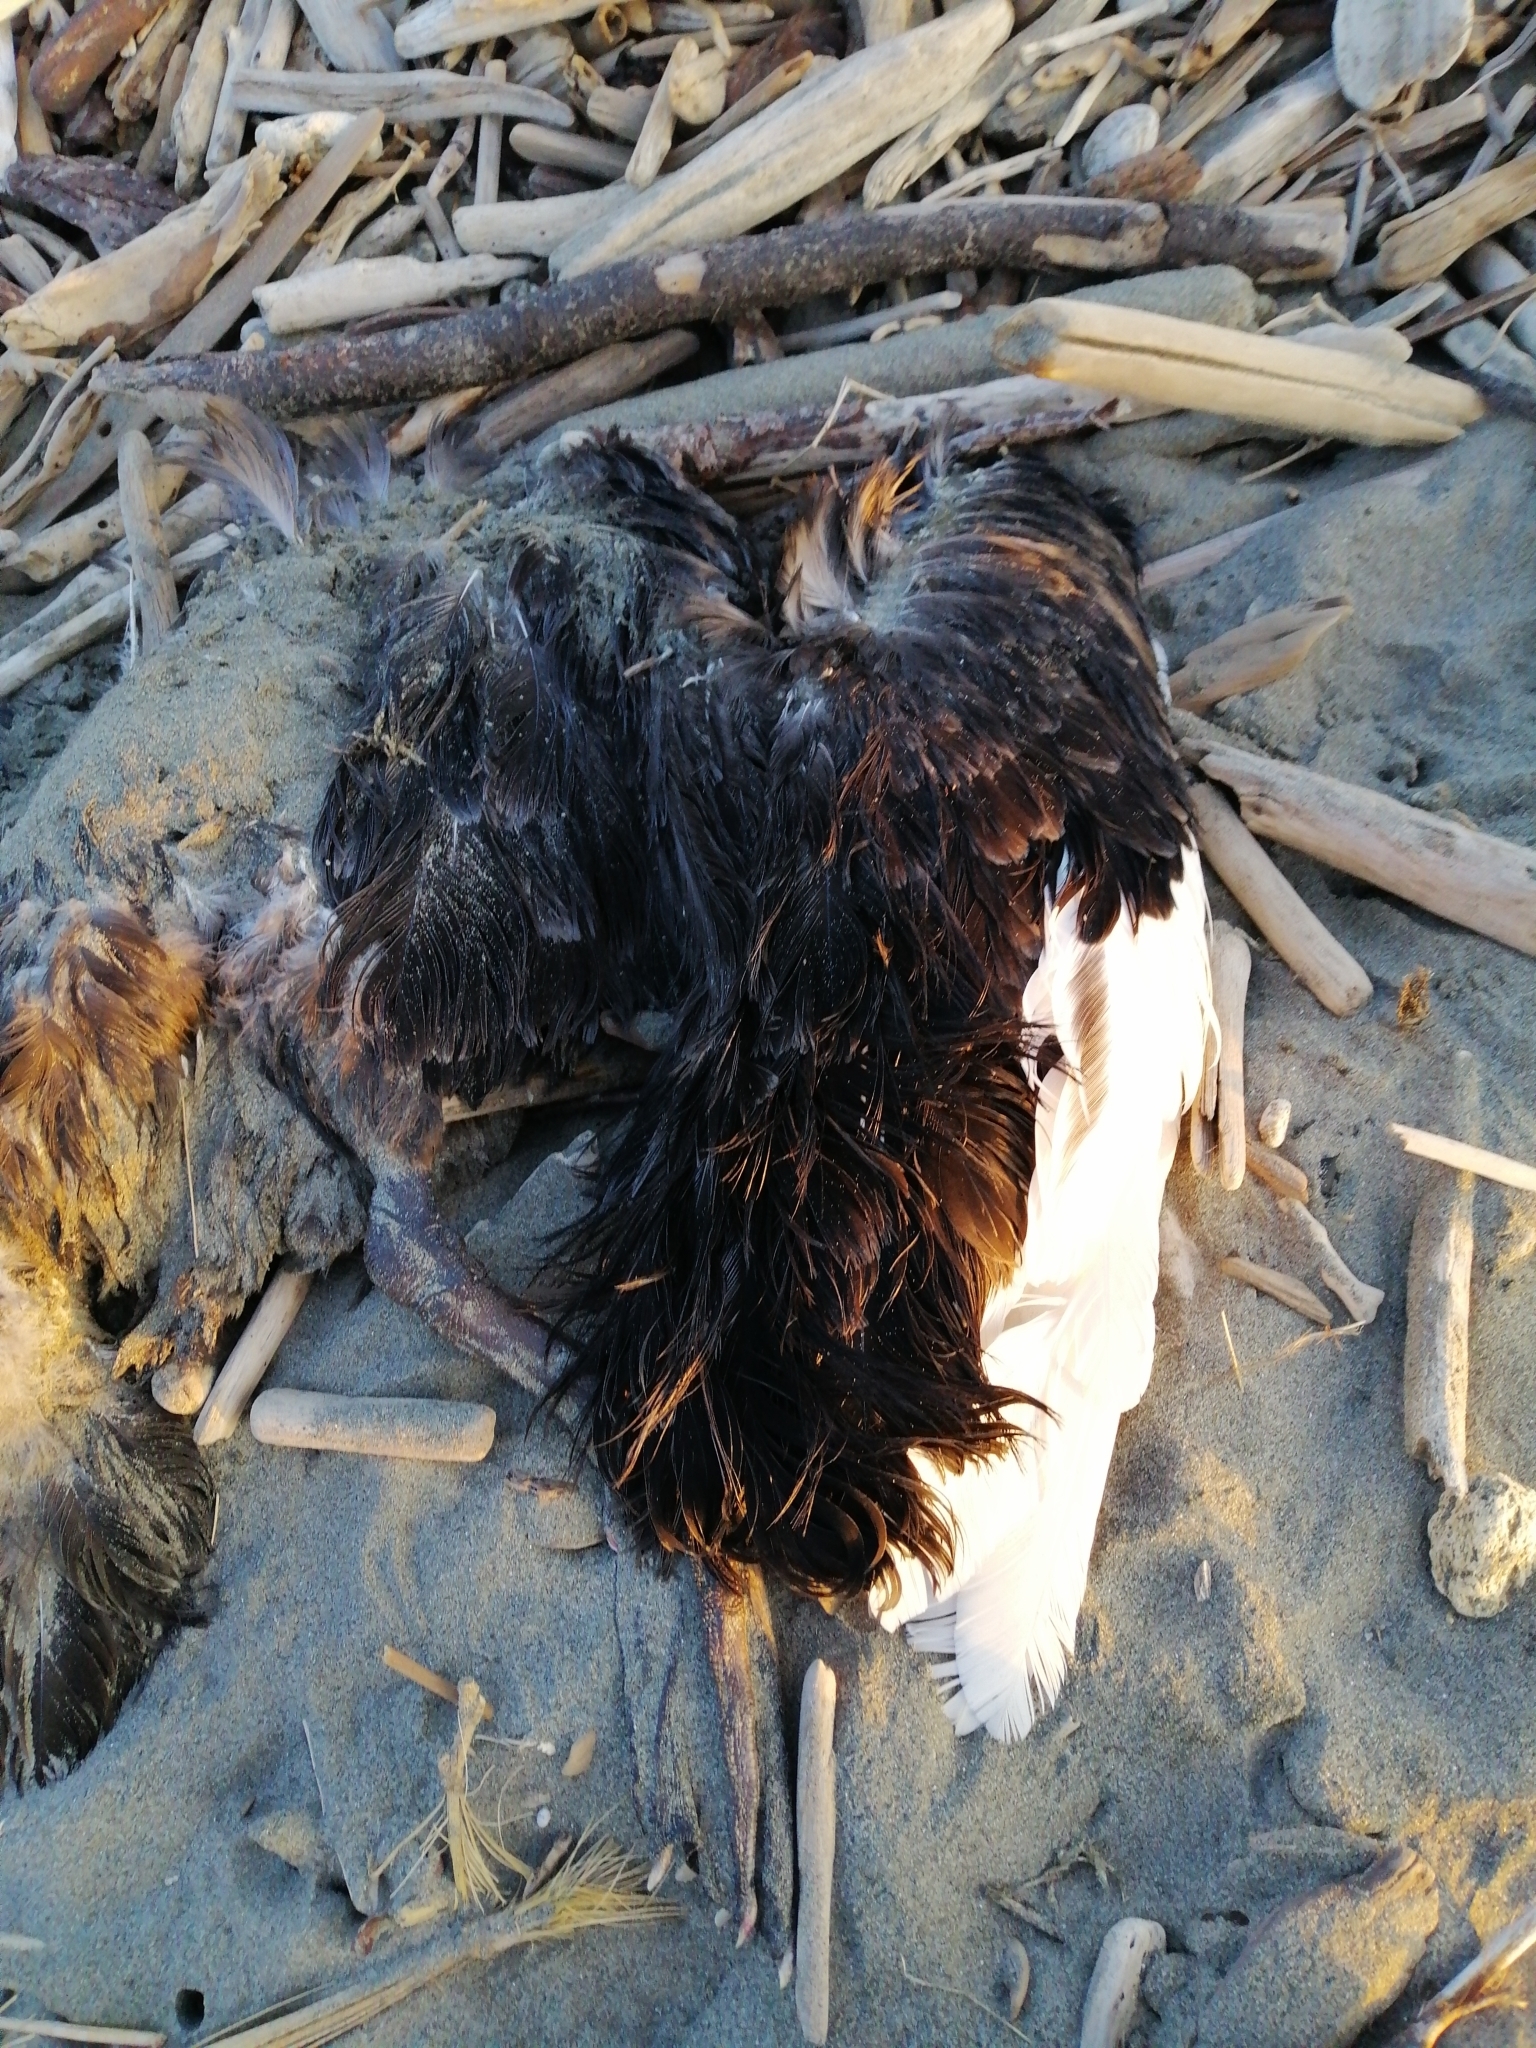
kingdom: Animalia
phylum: Chordata
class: Aves
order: Anseriformes
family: Anatidae
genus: Cygnus
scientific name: Cygnus atratus
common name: Black swan
